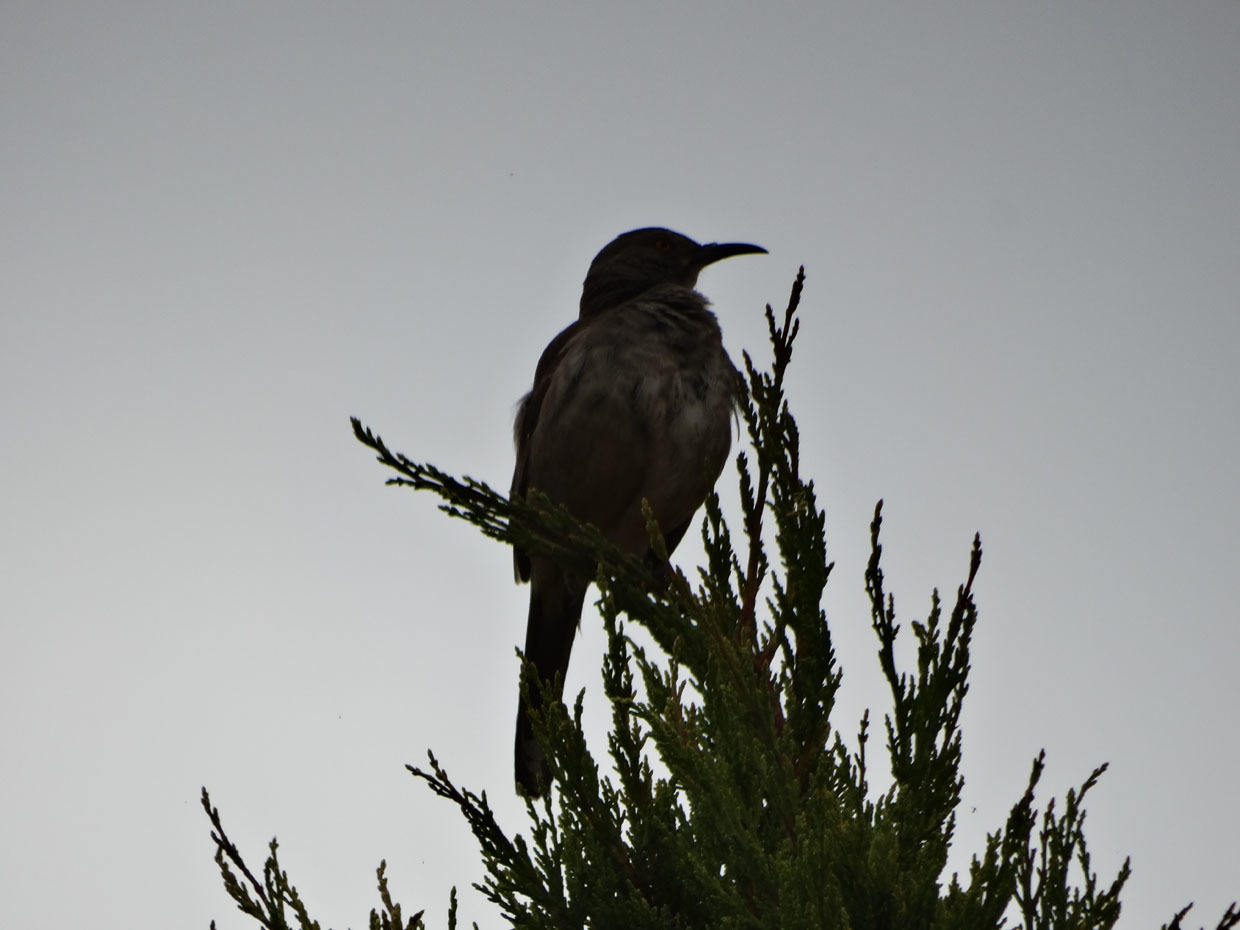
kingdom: Animalia
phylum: Chordata
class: Aves
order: Passeriformes
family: Mimidae
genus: Toxostoma
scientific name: Toxostoma curvirostre
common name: Curve-billed thrasher
